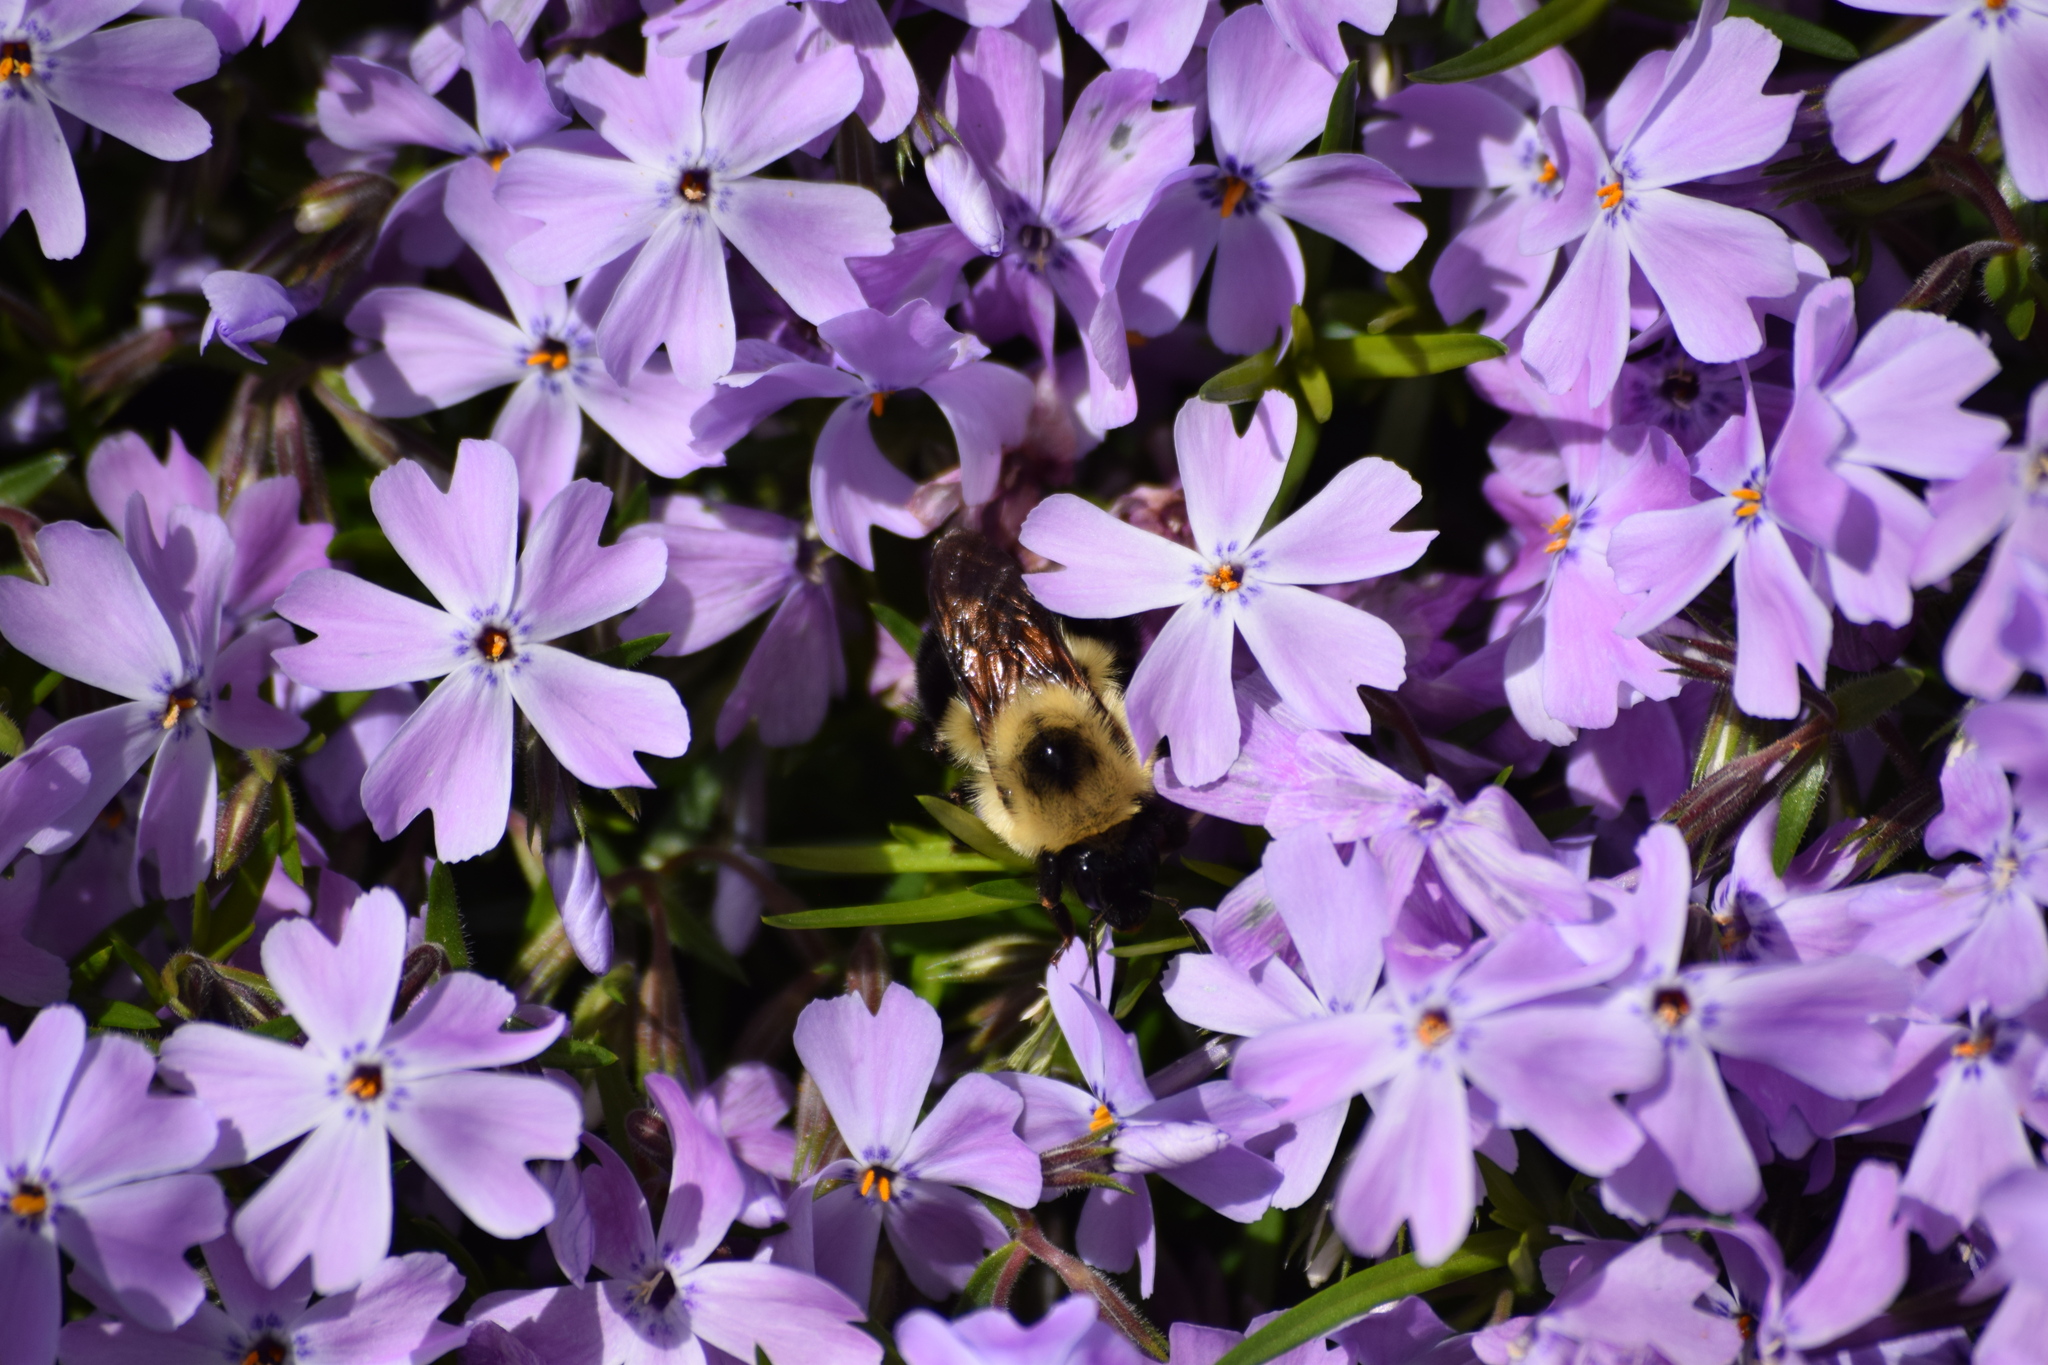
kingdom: Animalia
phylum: Arthropoda
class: Insecta
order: Hymenoptera
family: Apidae
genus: Bombus
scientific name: Bombus bimaculatus
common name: Two-spotted bumble bee
